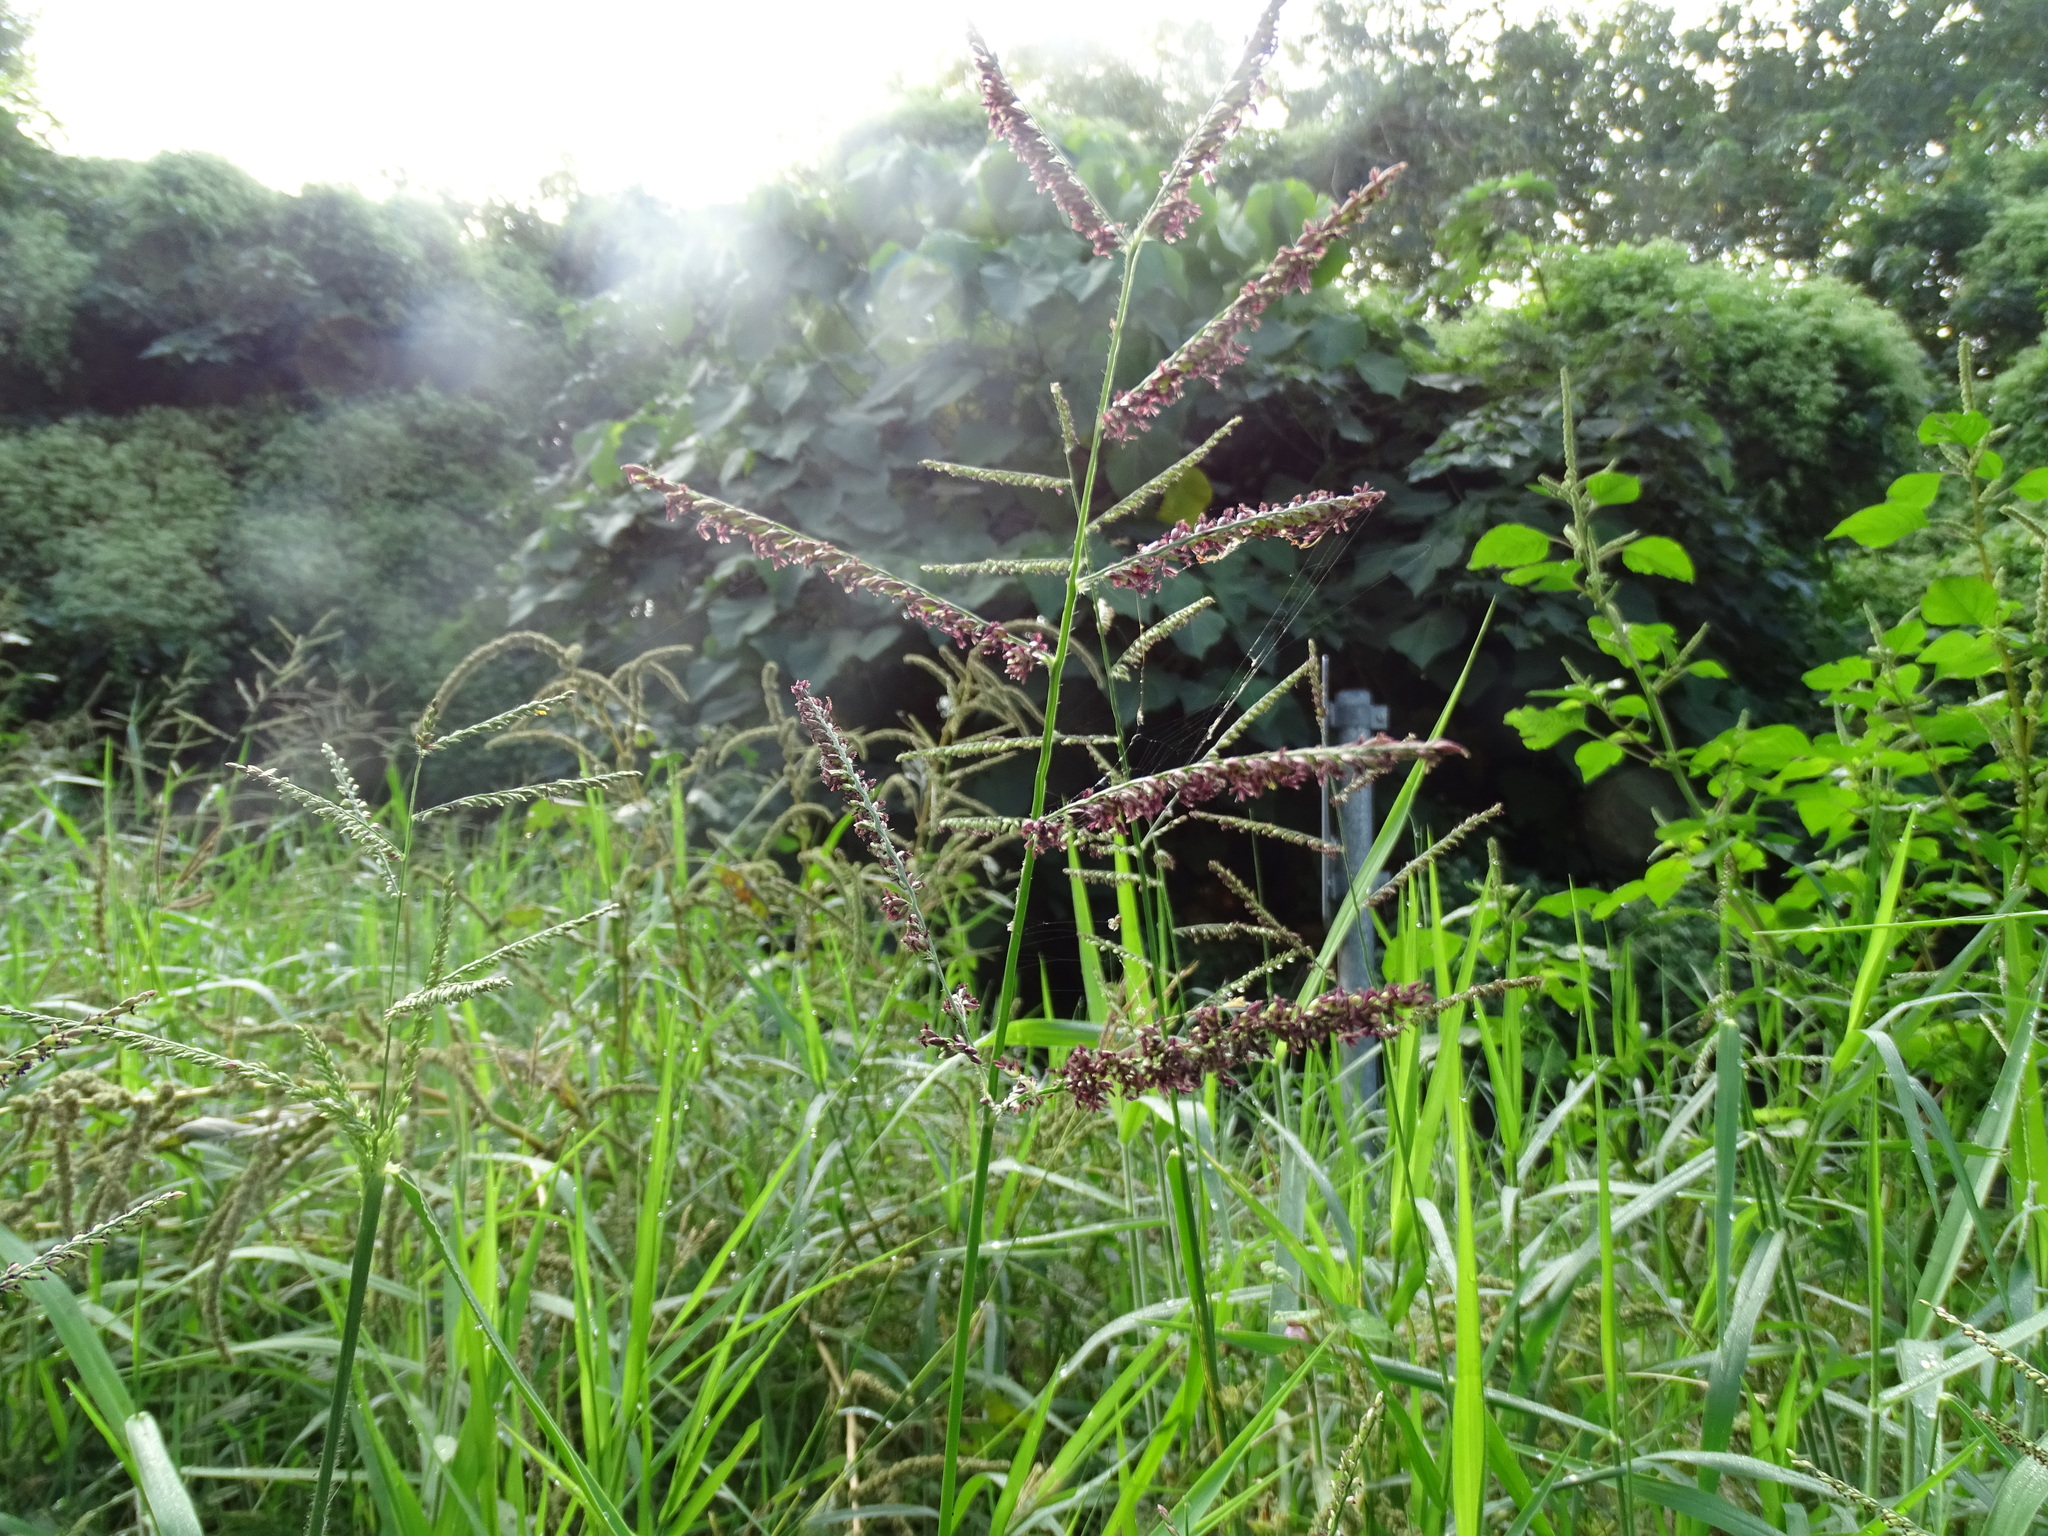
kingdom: Plantae
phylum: Tracheophyta
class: Liliopsida
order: Poales
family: Poaceae
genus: Urochloa
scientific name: Urochloa mutica
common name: Para grass
